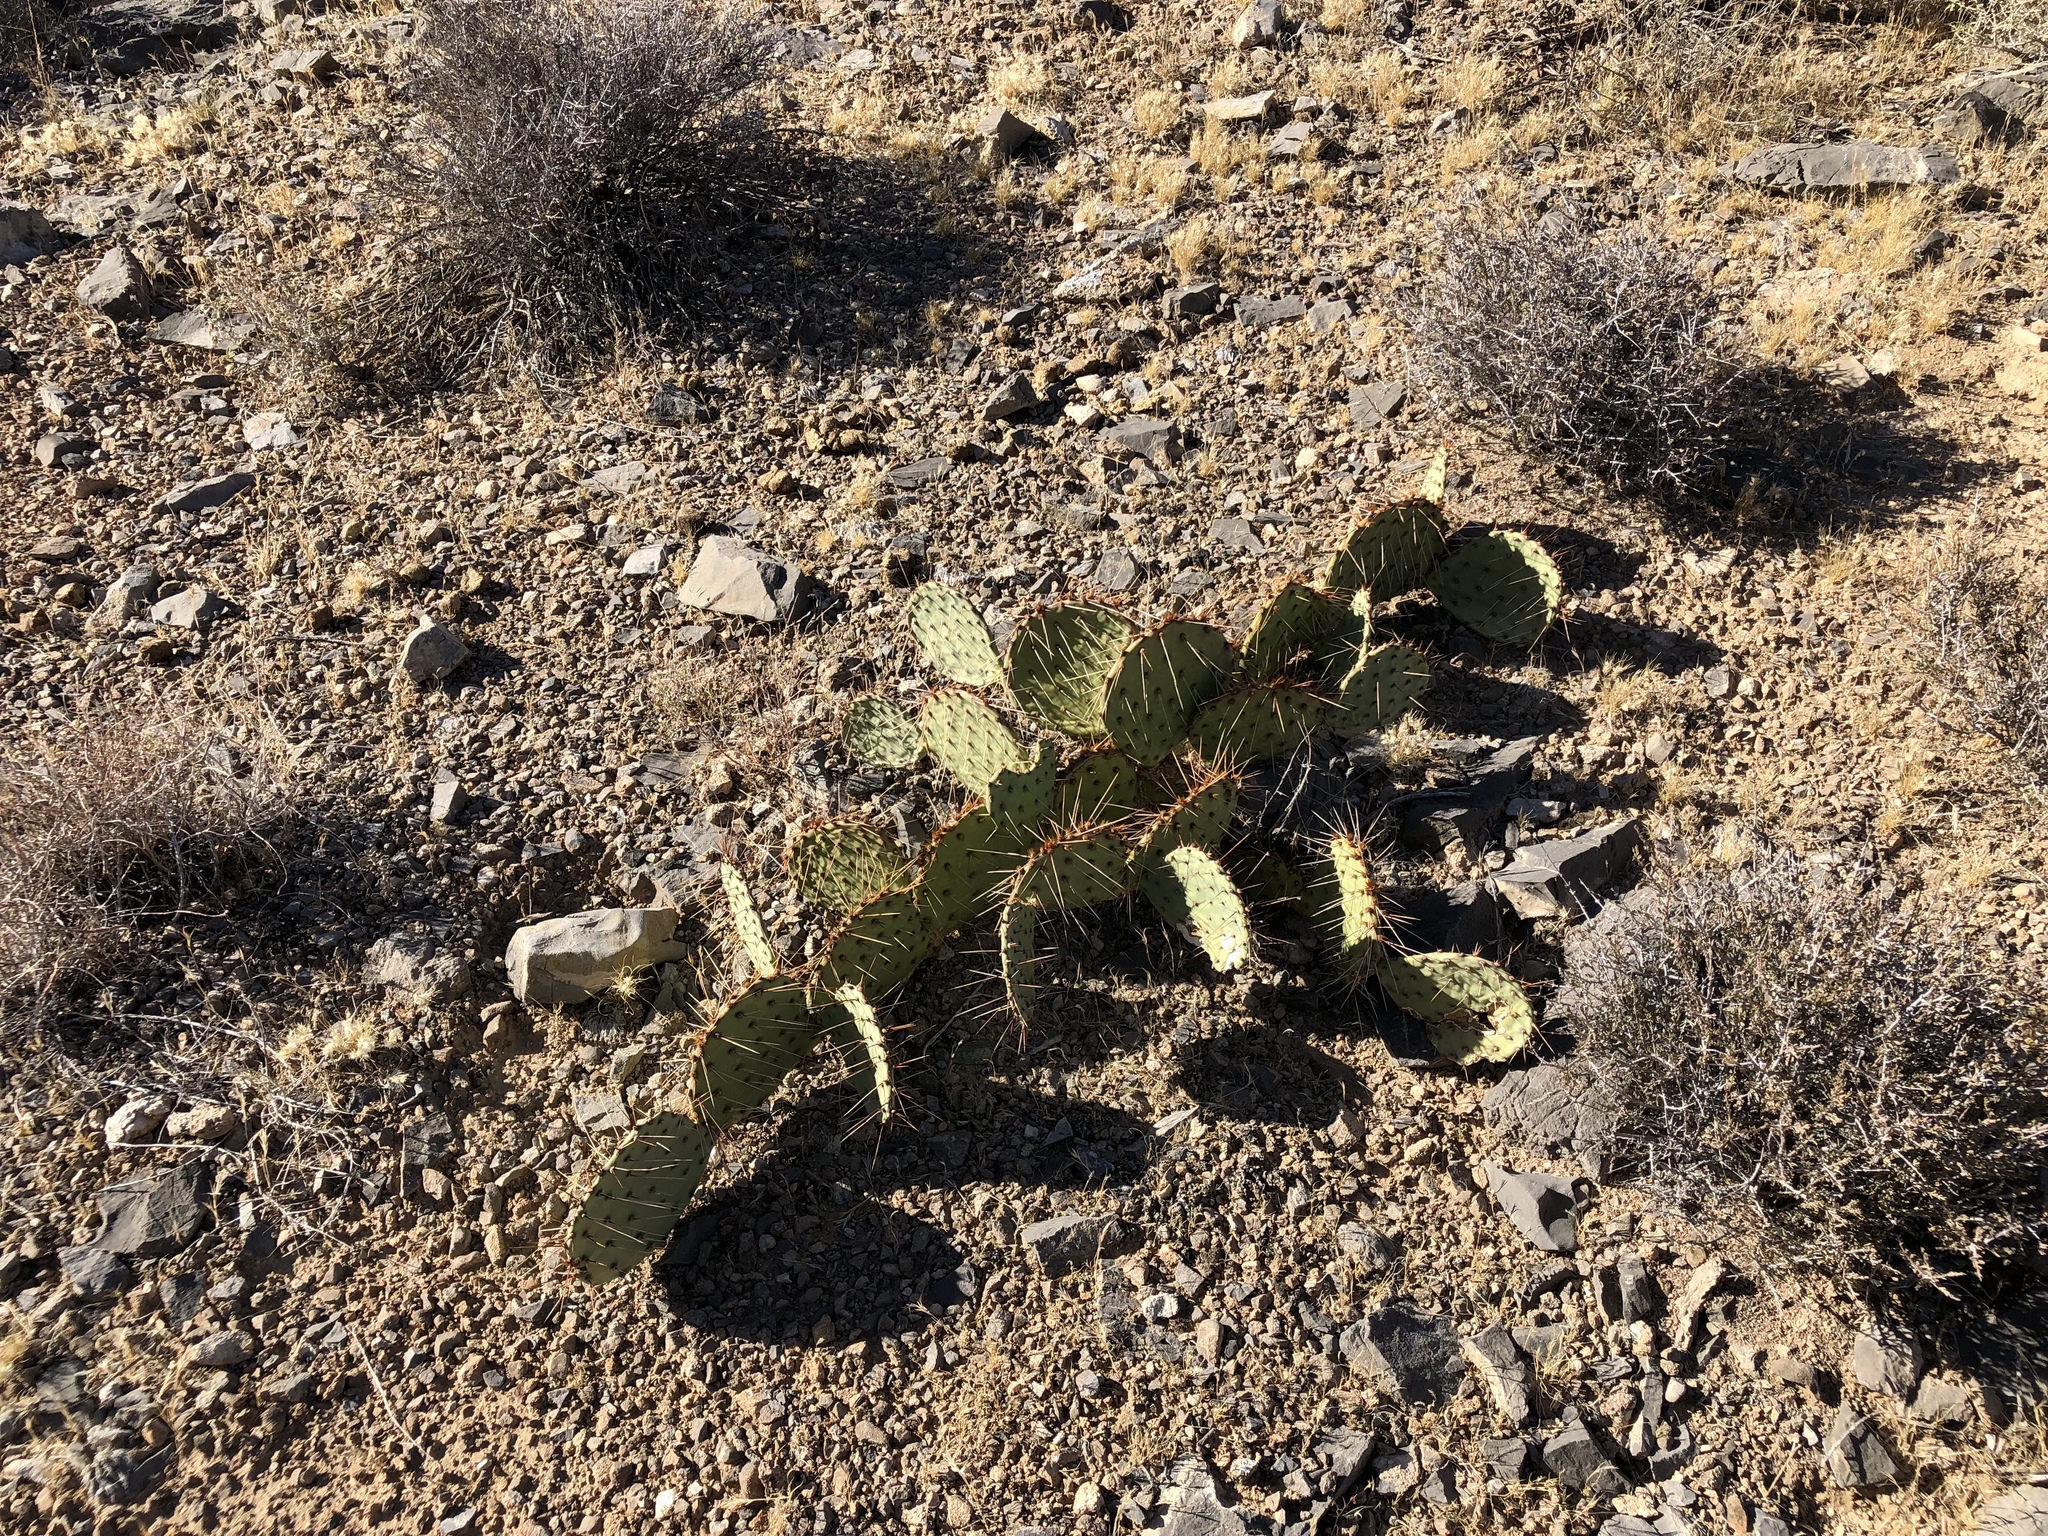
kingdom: Plantae
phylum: Tracheophyta
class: Magnoliopsida
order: Caryophyllales
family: Cactaceae
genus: Opuntia
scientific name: Opuntia phaeacantha
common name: New mexico prickly-pear
